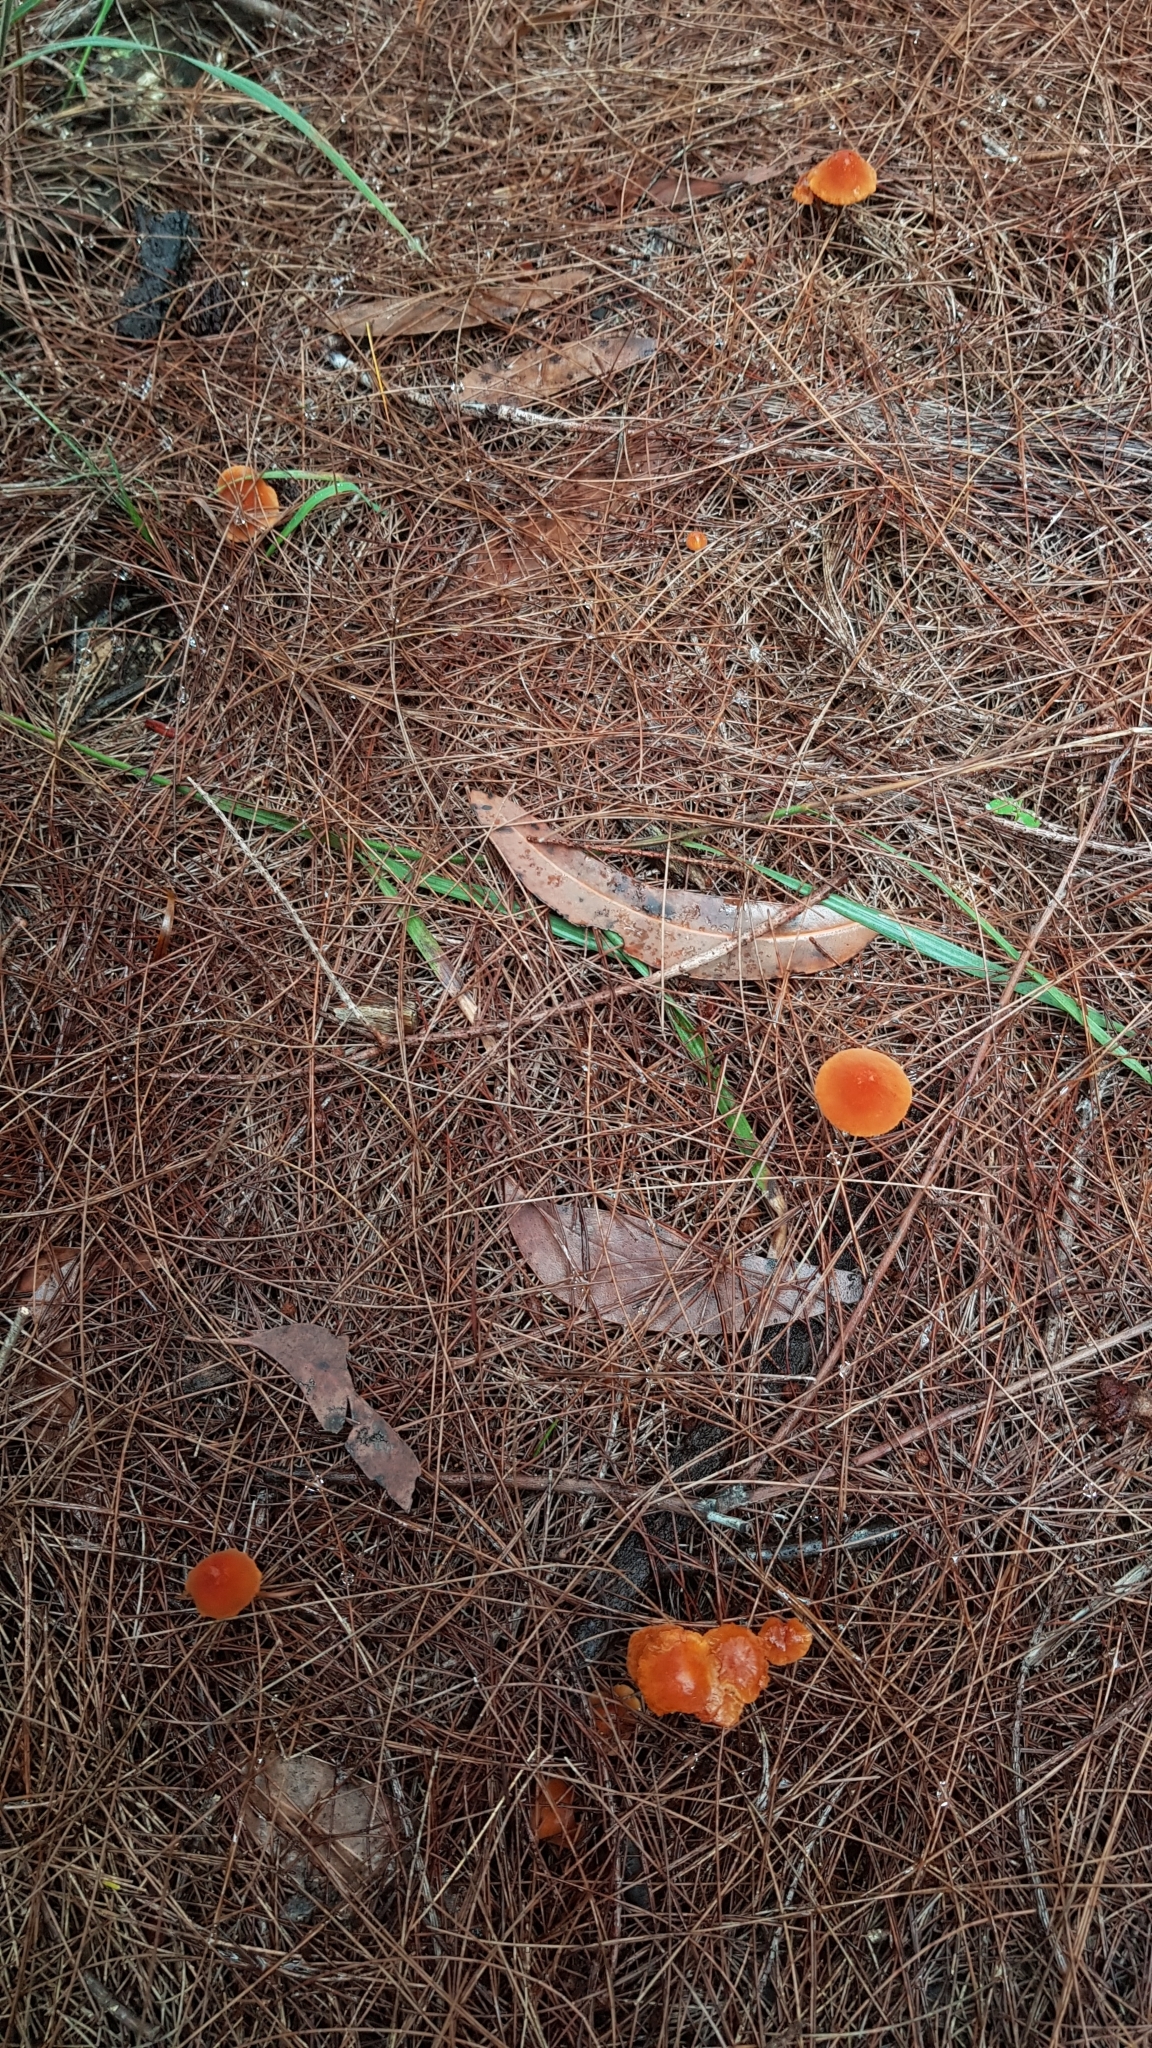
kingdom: Fungi
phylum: Basidiomycota
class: Agaricomycetes
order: Agaricales
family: Marasmiaceae
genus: Marasmius
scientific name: Marasmius elegans
